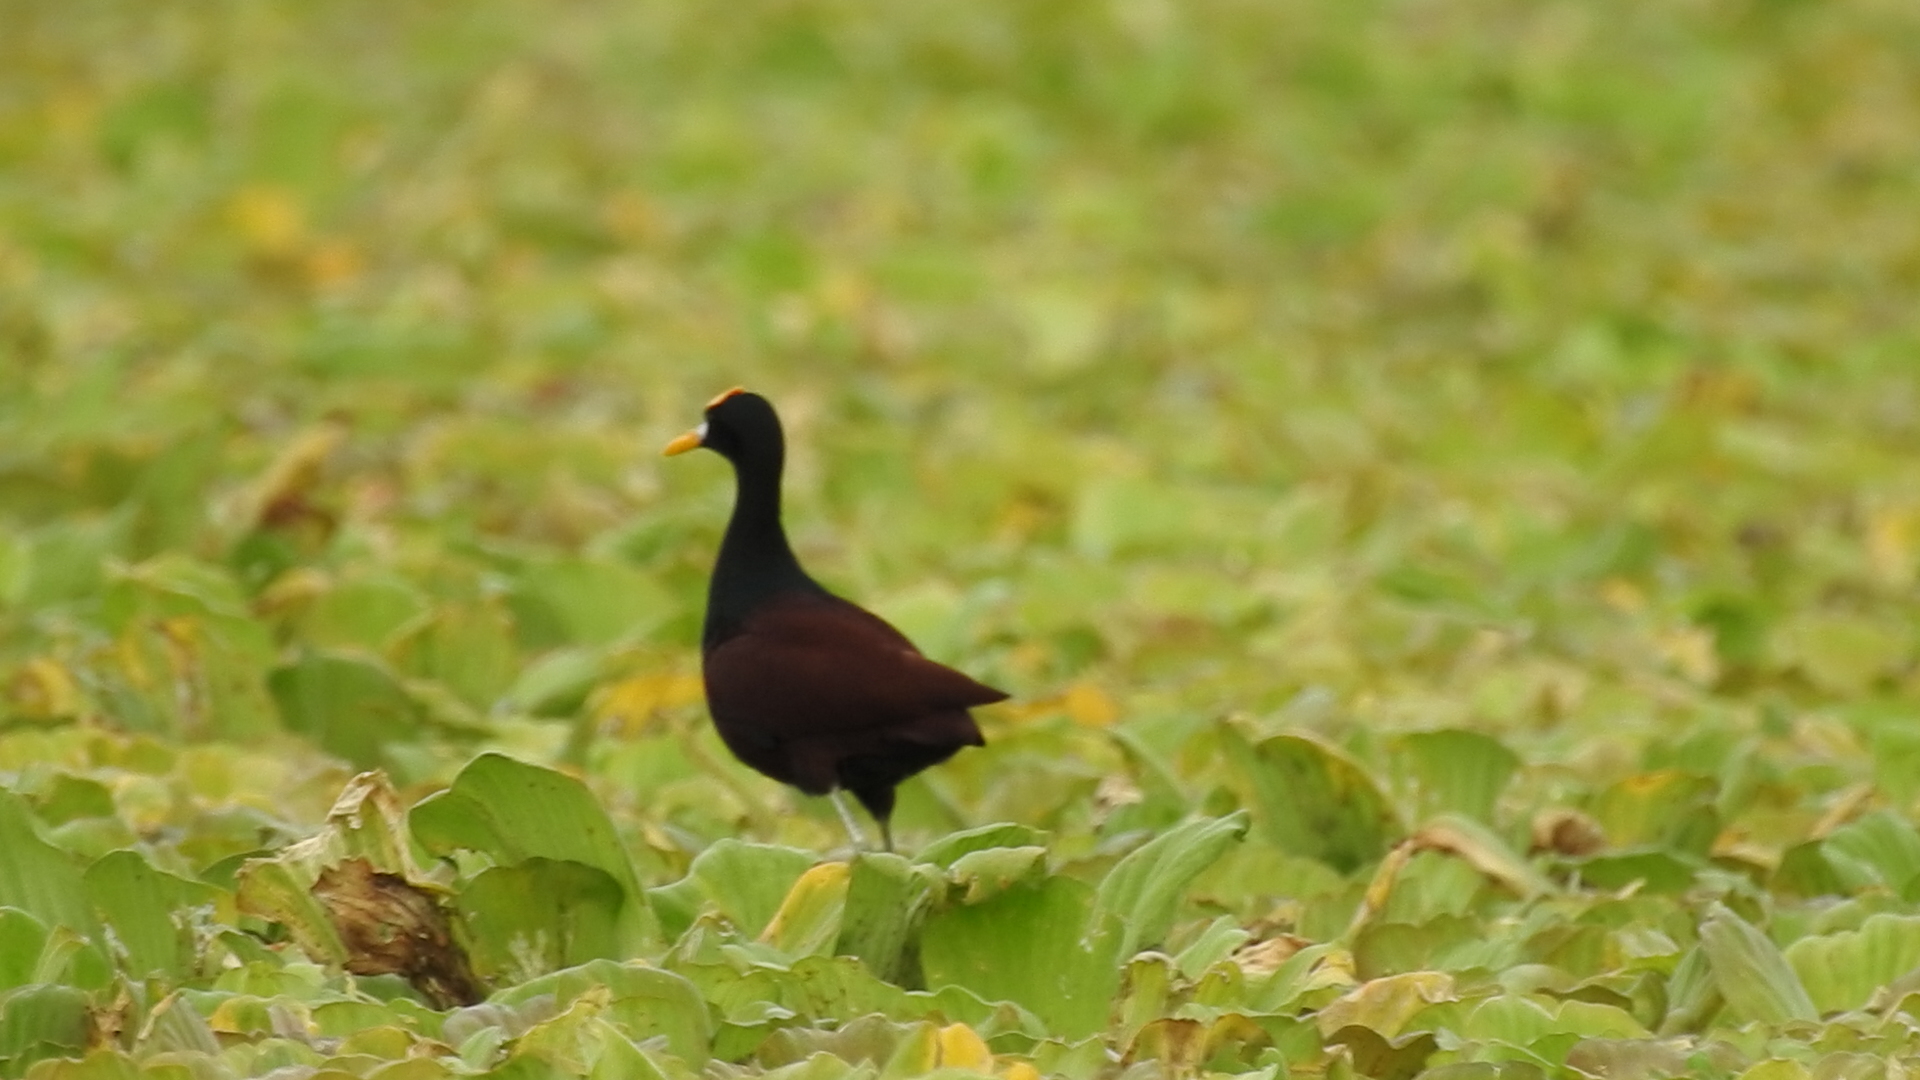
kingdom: Animalia
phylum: Chordata
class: Aves
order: Charadriiformes
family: Jacanidae
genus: Jacana
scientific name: Jacana spinosa
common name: Northern jacana
